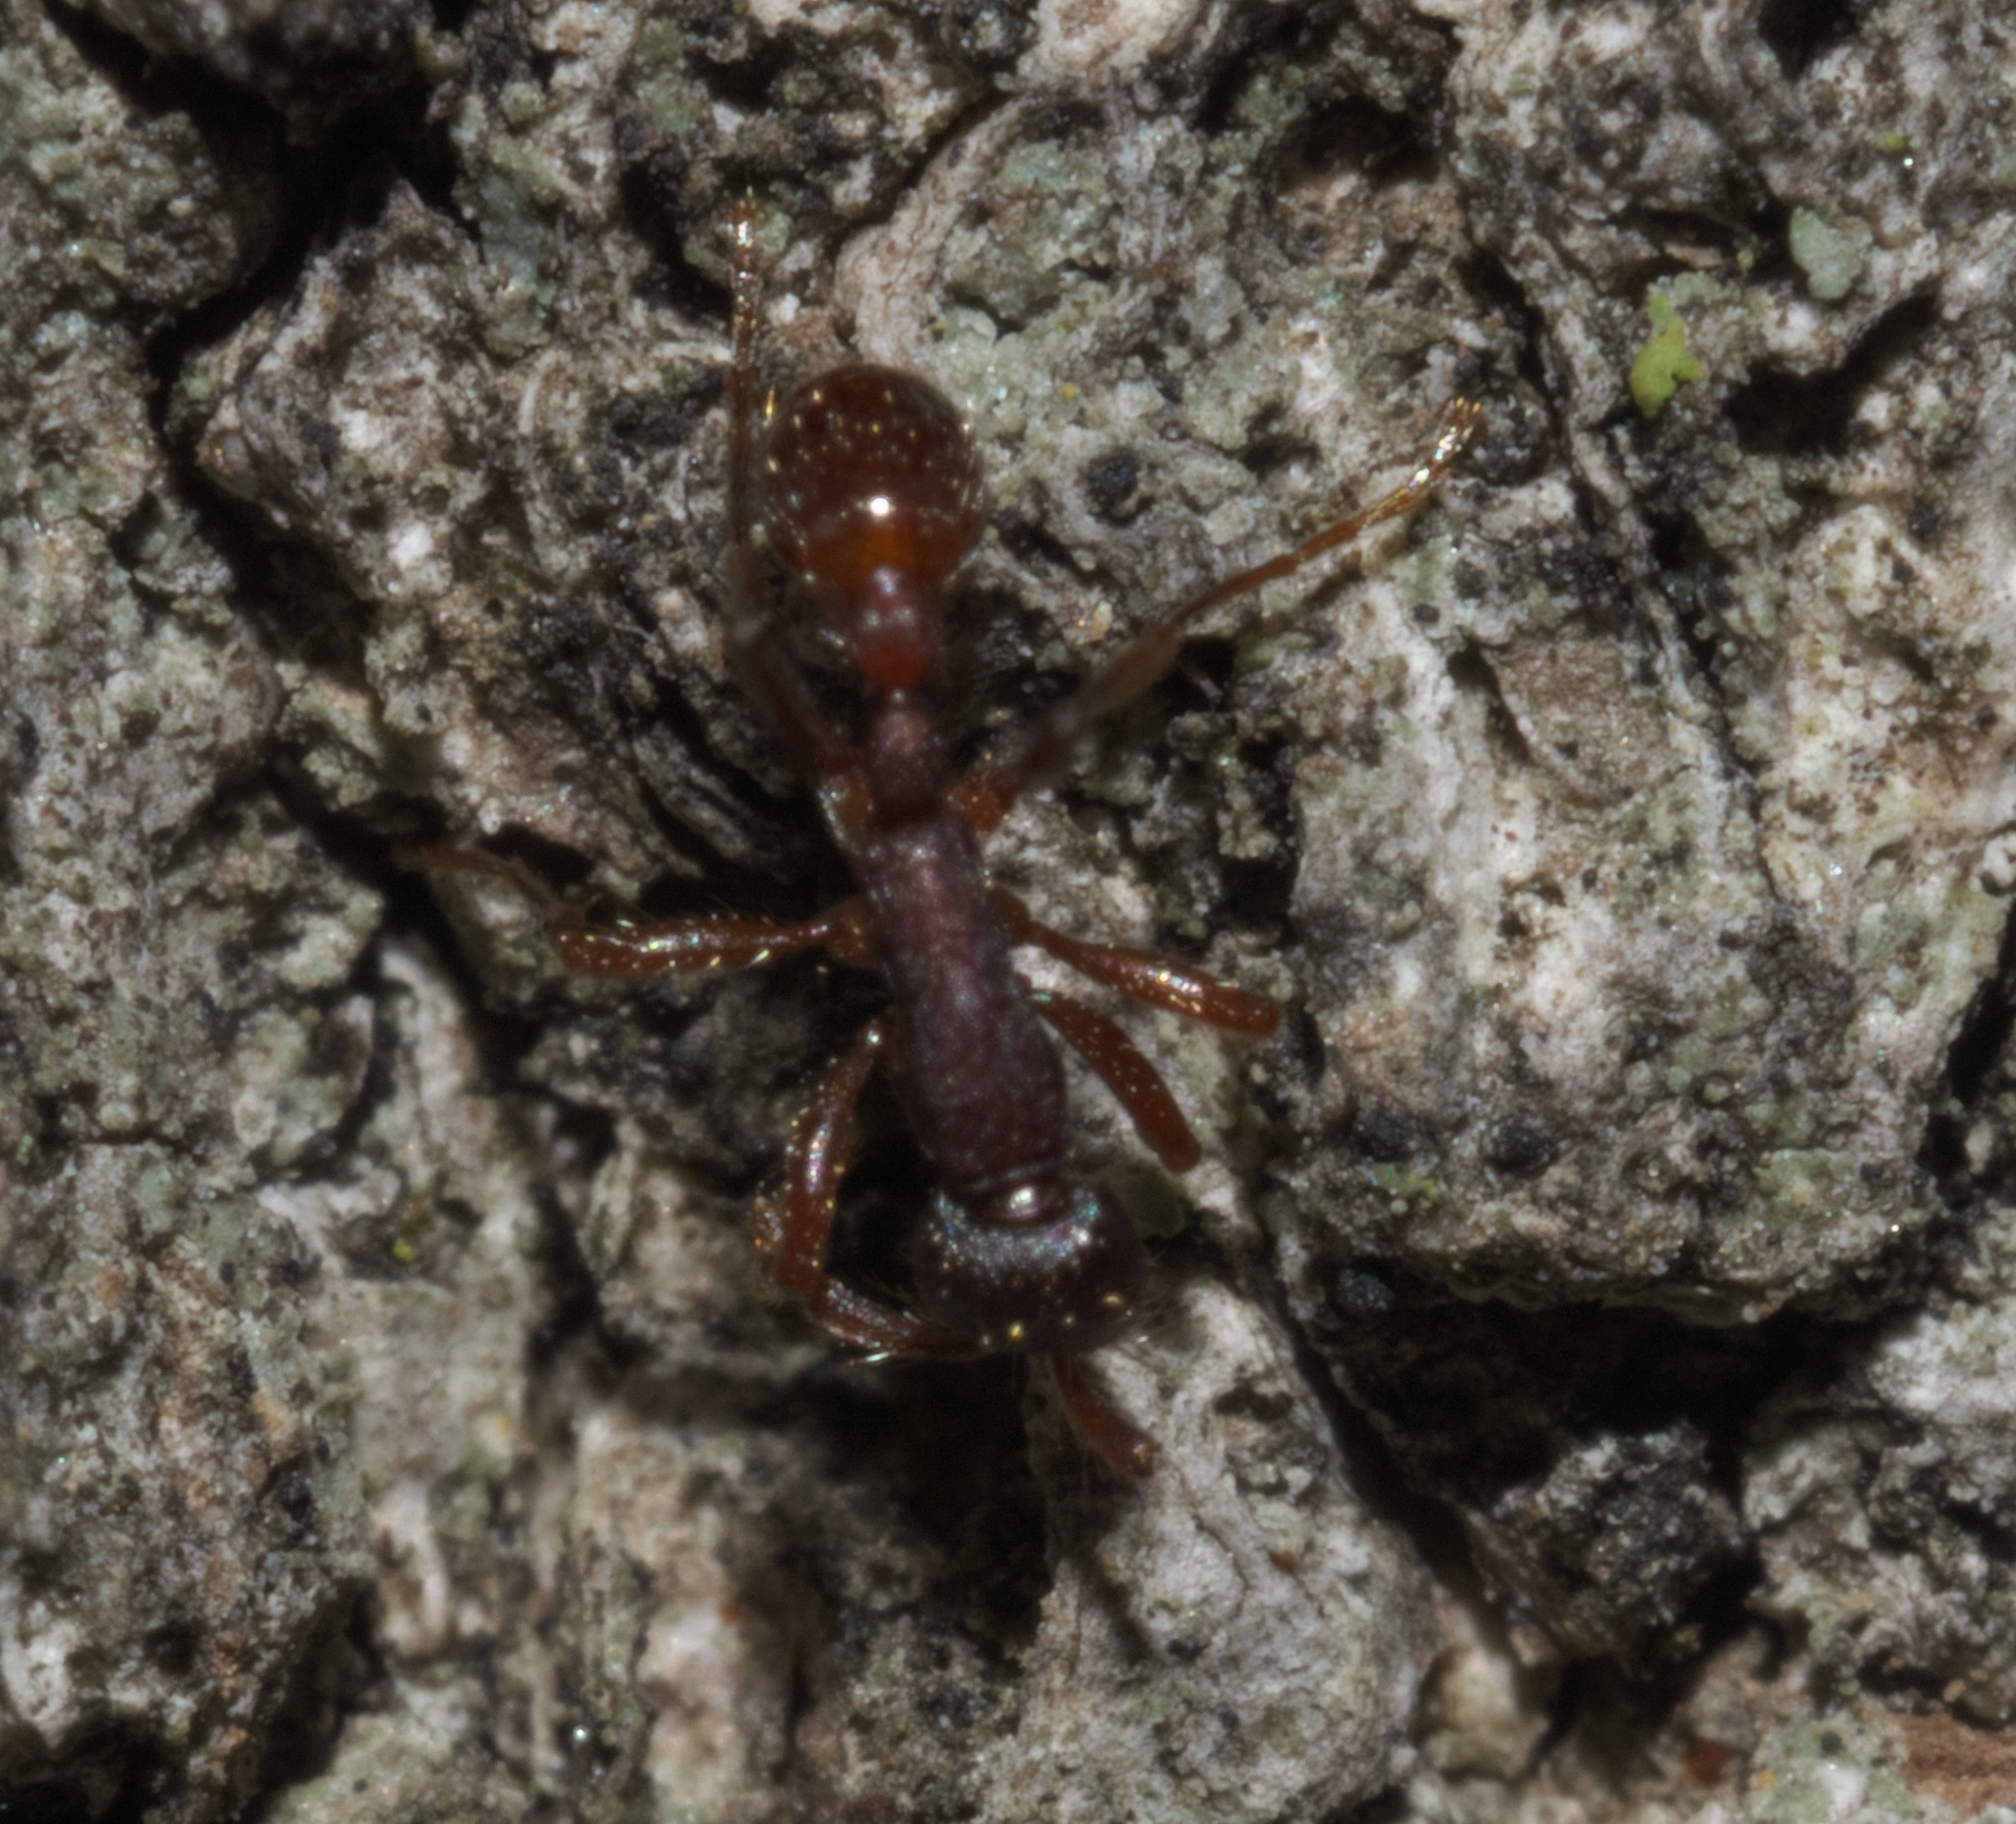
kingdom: Animalia
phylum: Arthropoda
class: Insecta
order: Hymenoptera
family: Formicidae
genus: Neivamyrmex
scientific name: Neivamyrmex nigrescens
